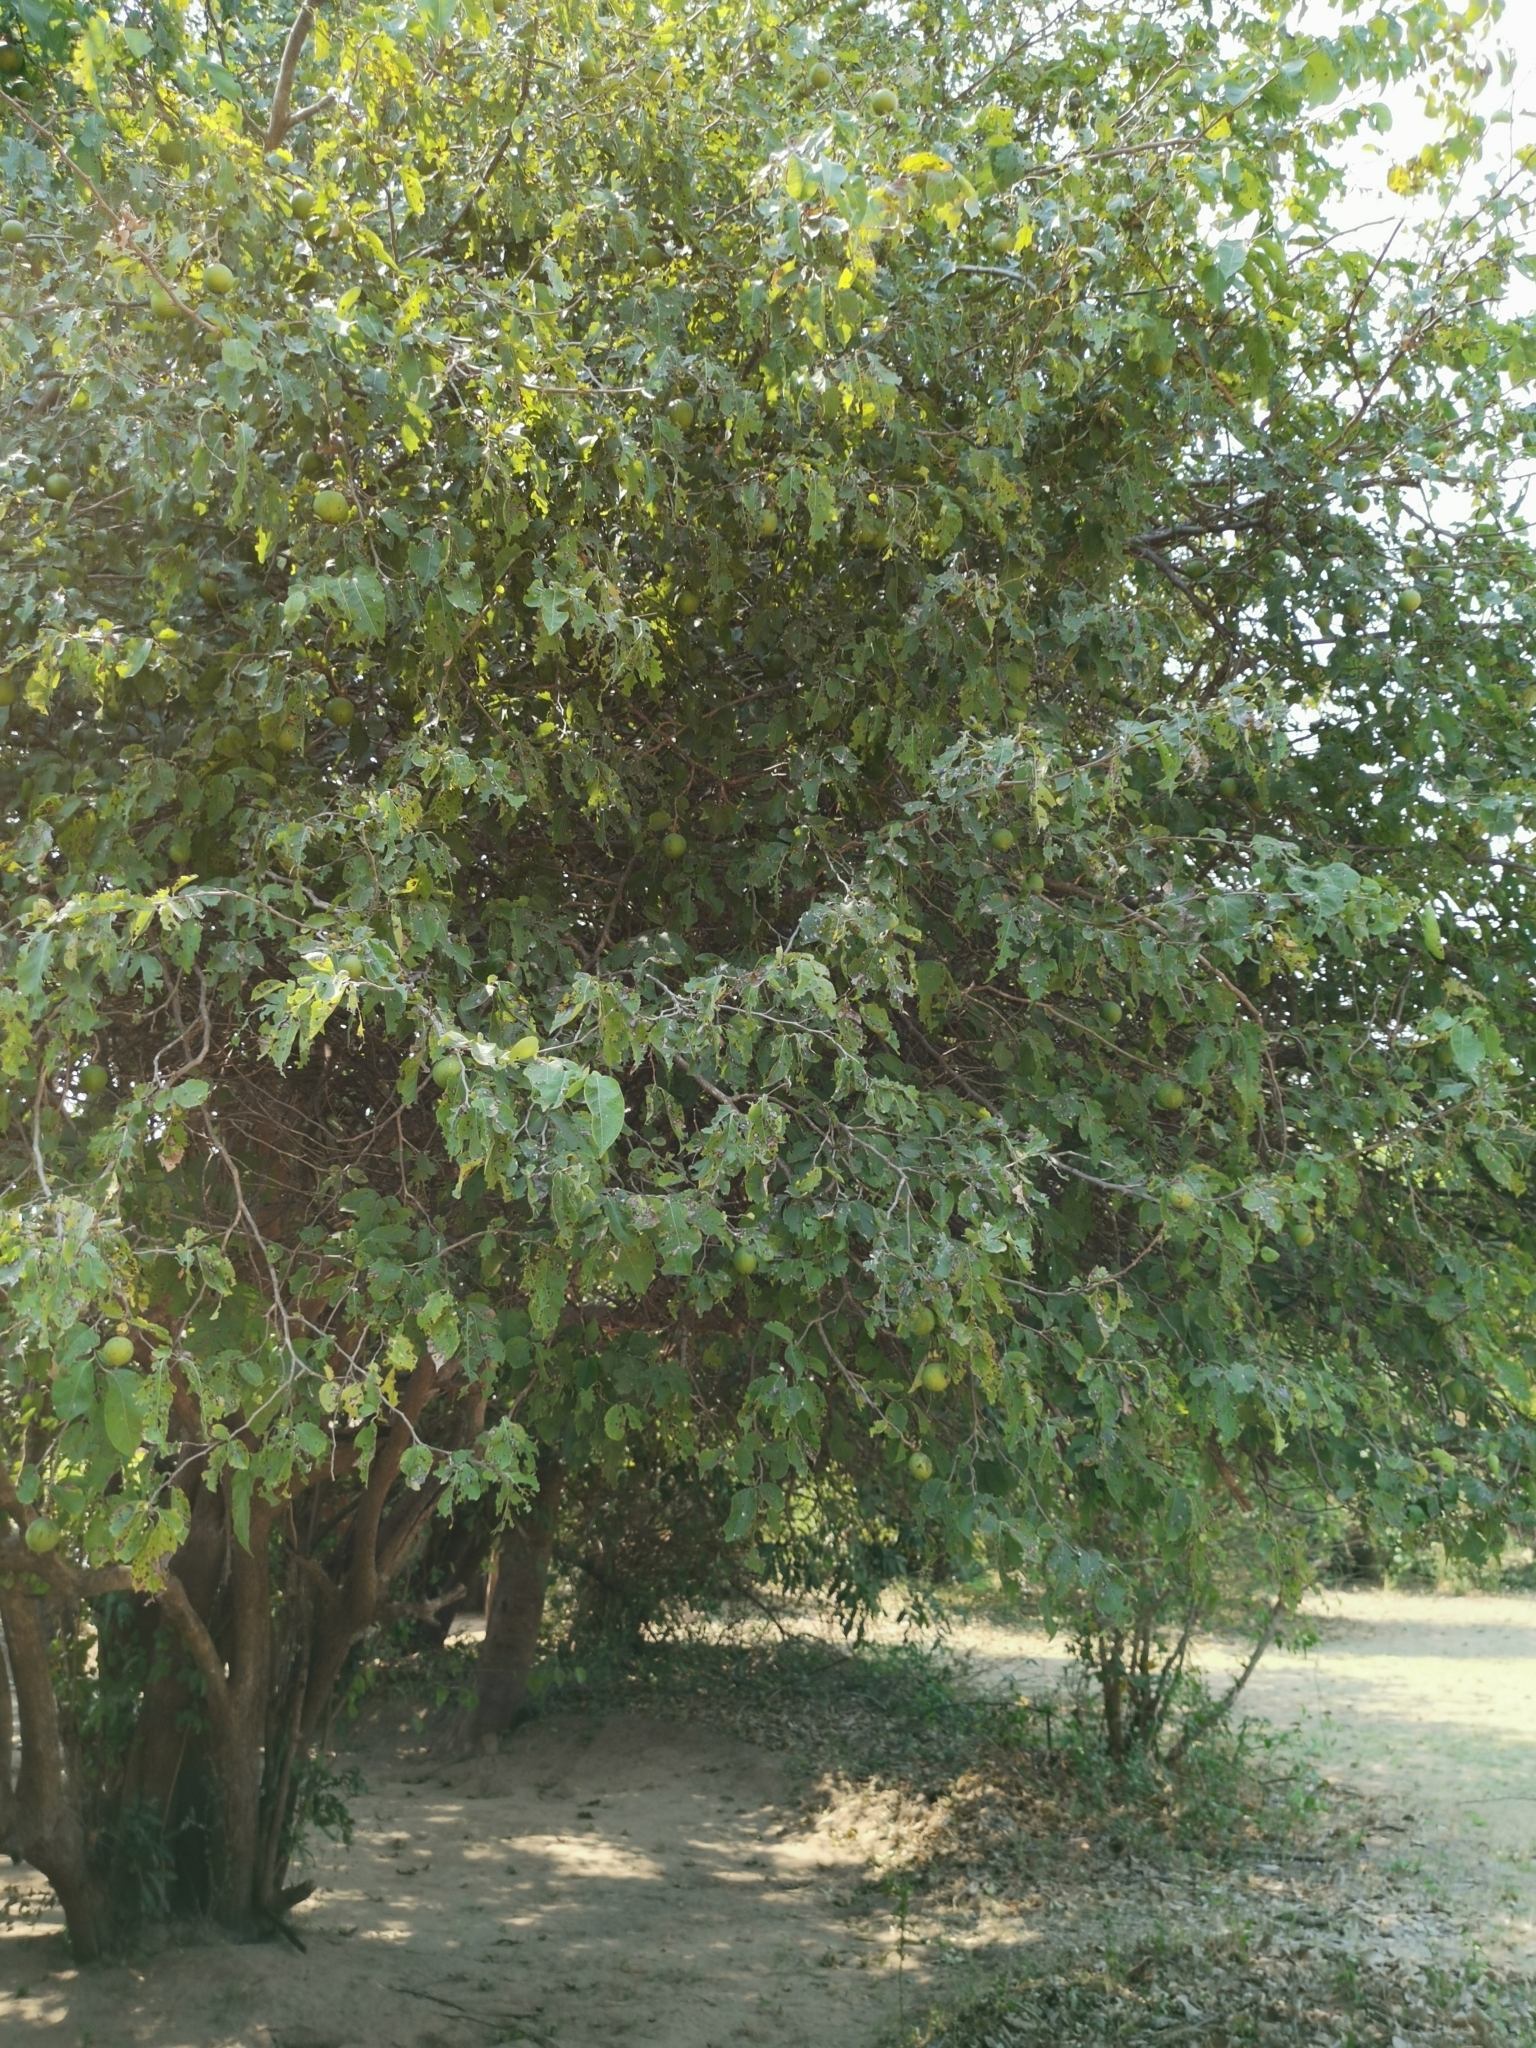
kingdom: Plantae
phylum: Tracheophyta
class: Magnoliopsida
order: Malpighiales
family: Salicaceae
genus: Oncoba
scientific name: Oncoba spinosa
